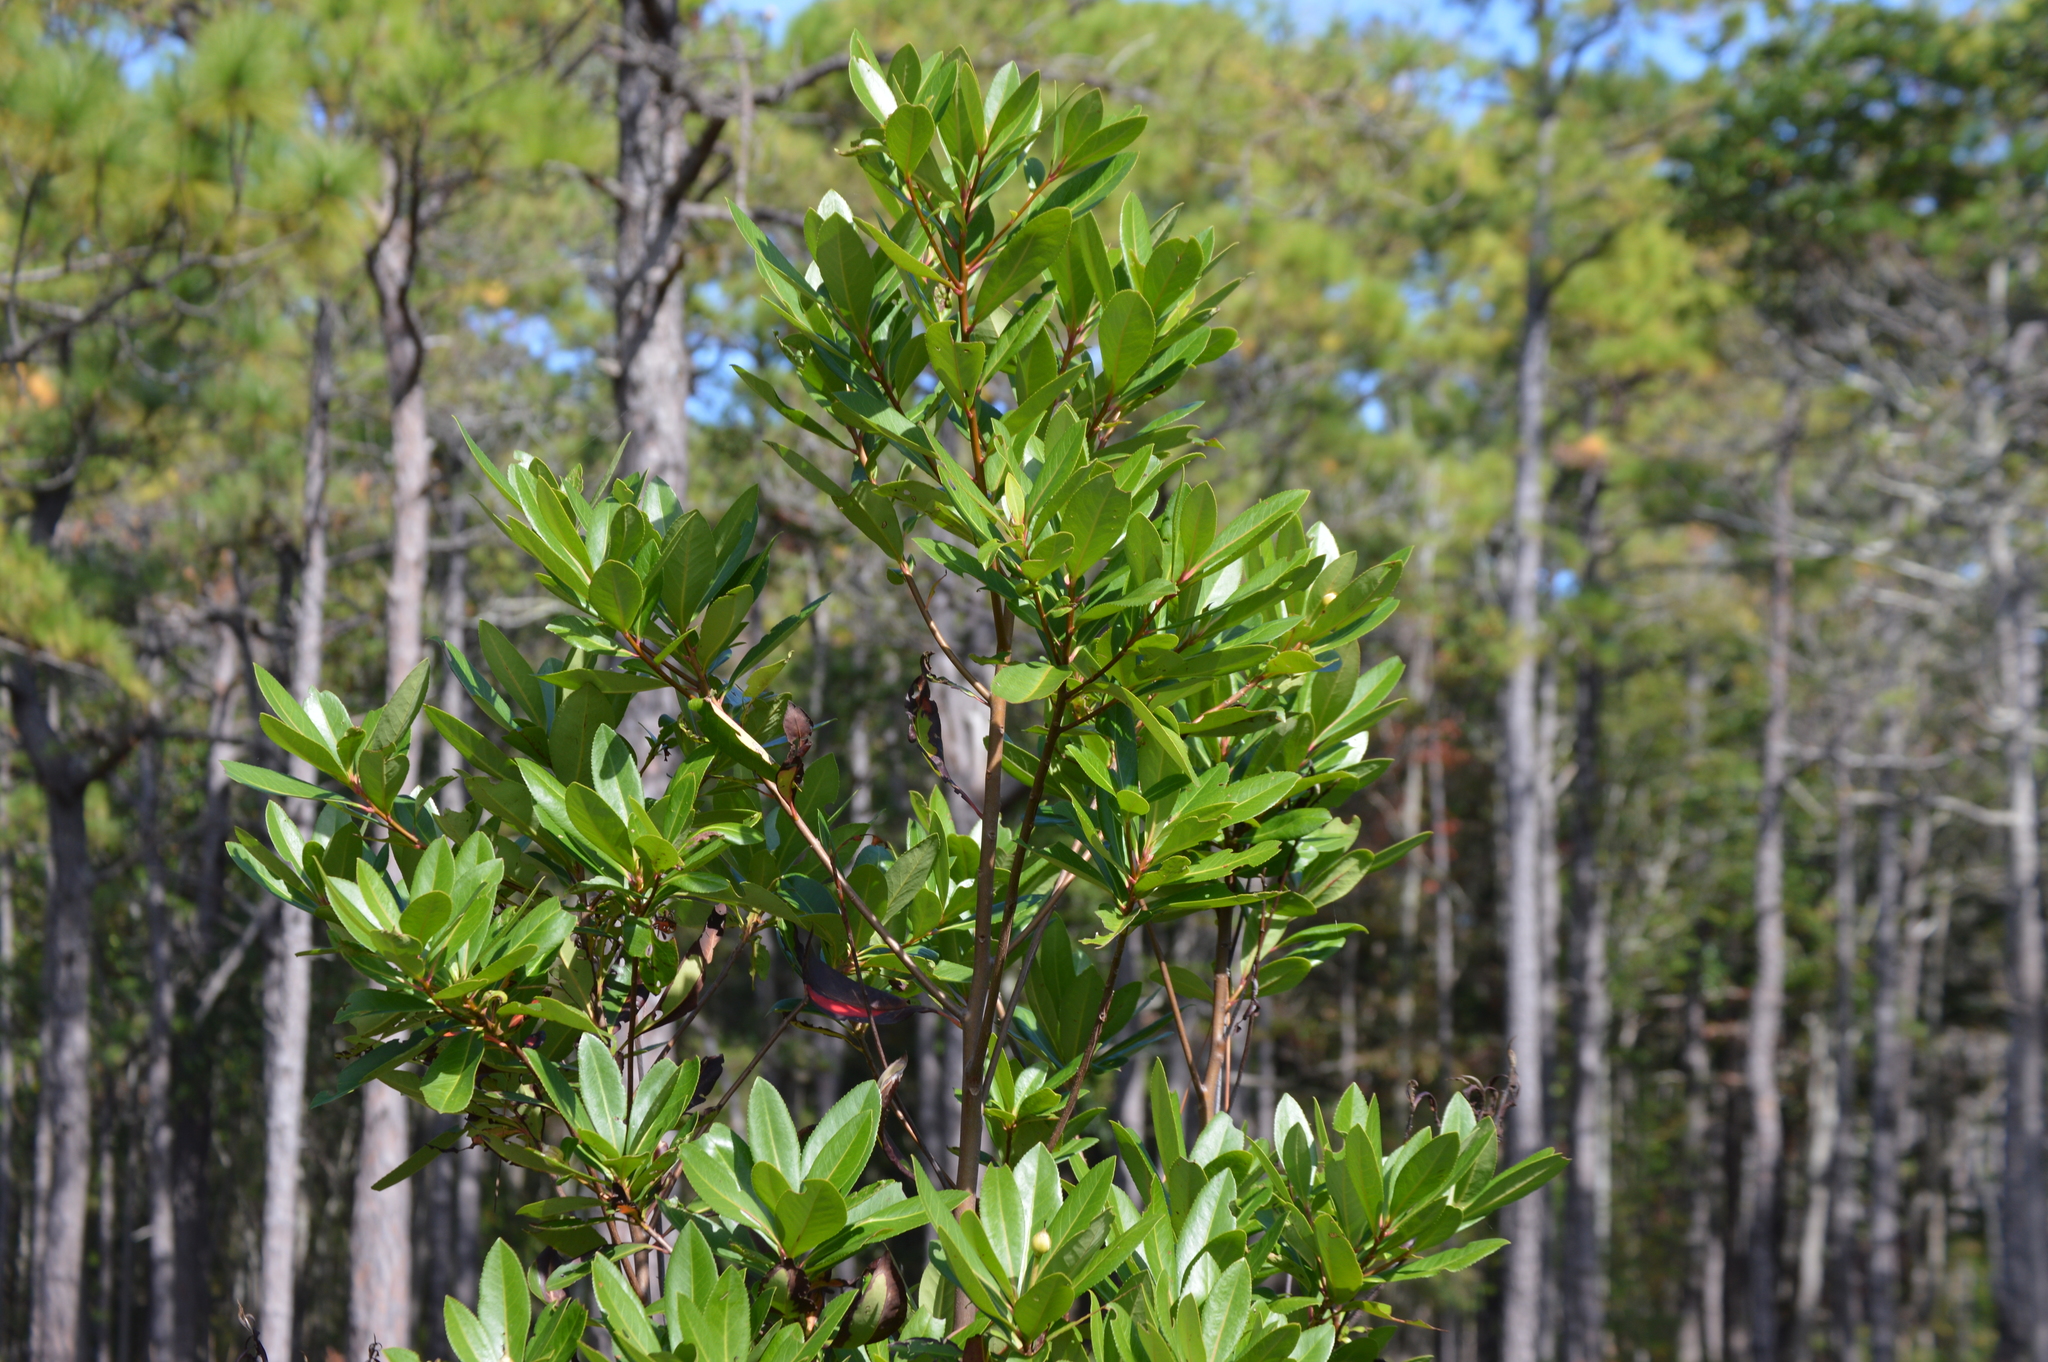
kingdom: Plantae
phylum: Tracheophyta
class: Magnoliopsida
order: Ericales
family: Theaceae
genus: Gordonia
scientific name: Gordonia lasianthus
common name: Loblolly bay
